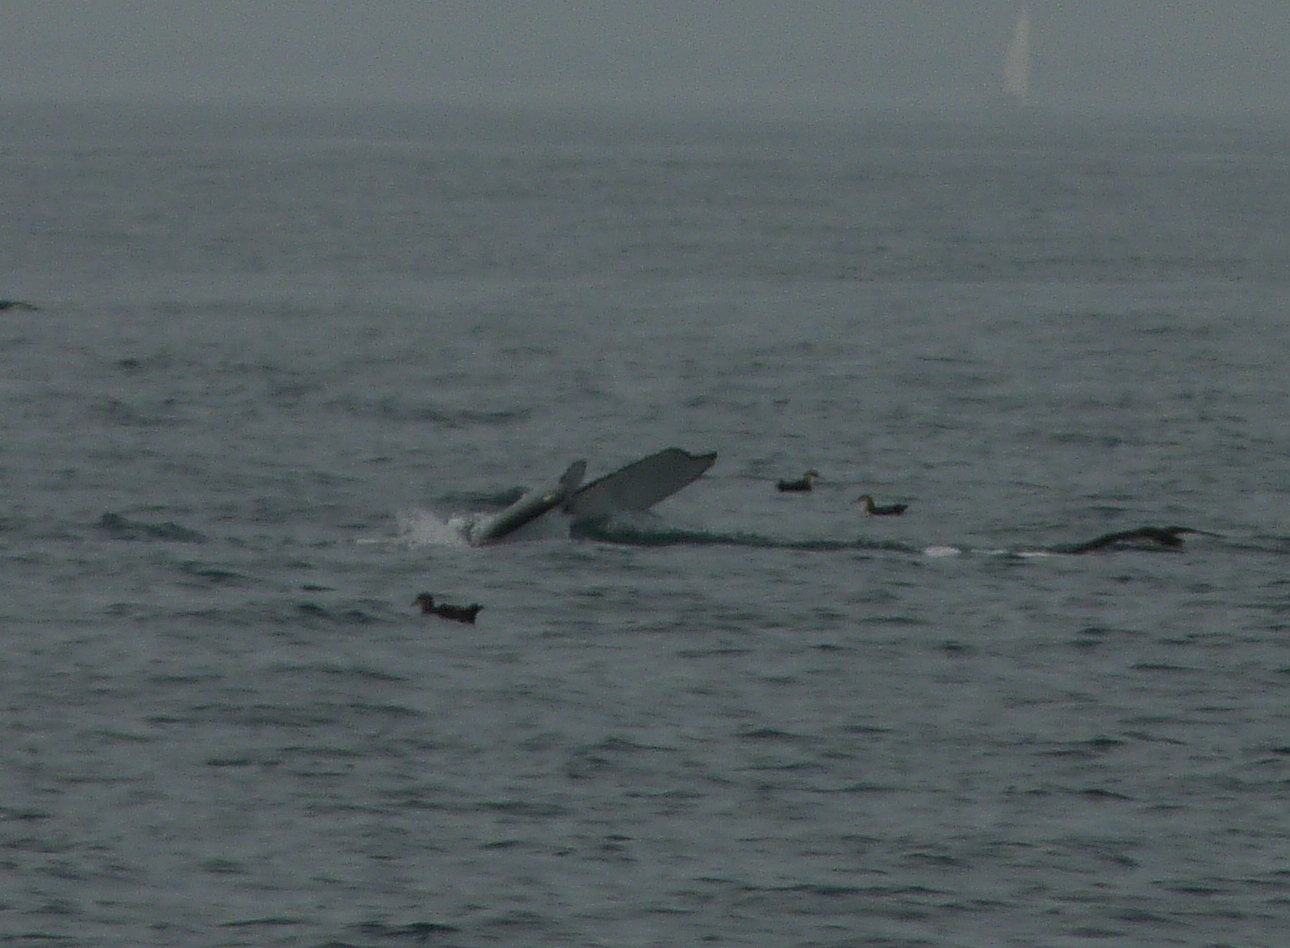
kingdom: Animalia
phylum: Chordata
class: Mammalia
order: Cetacea
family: Balaenopteridae
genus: Megaptera
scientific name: Megaptera novaeangliae
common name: Humpback whale
